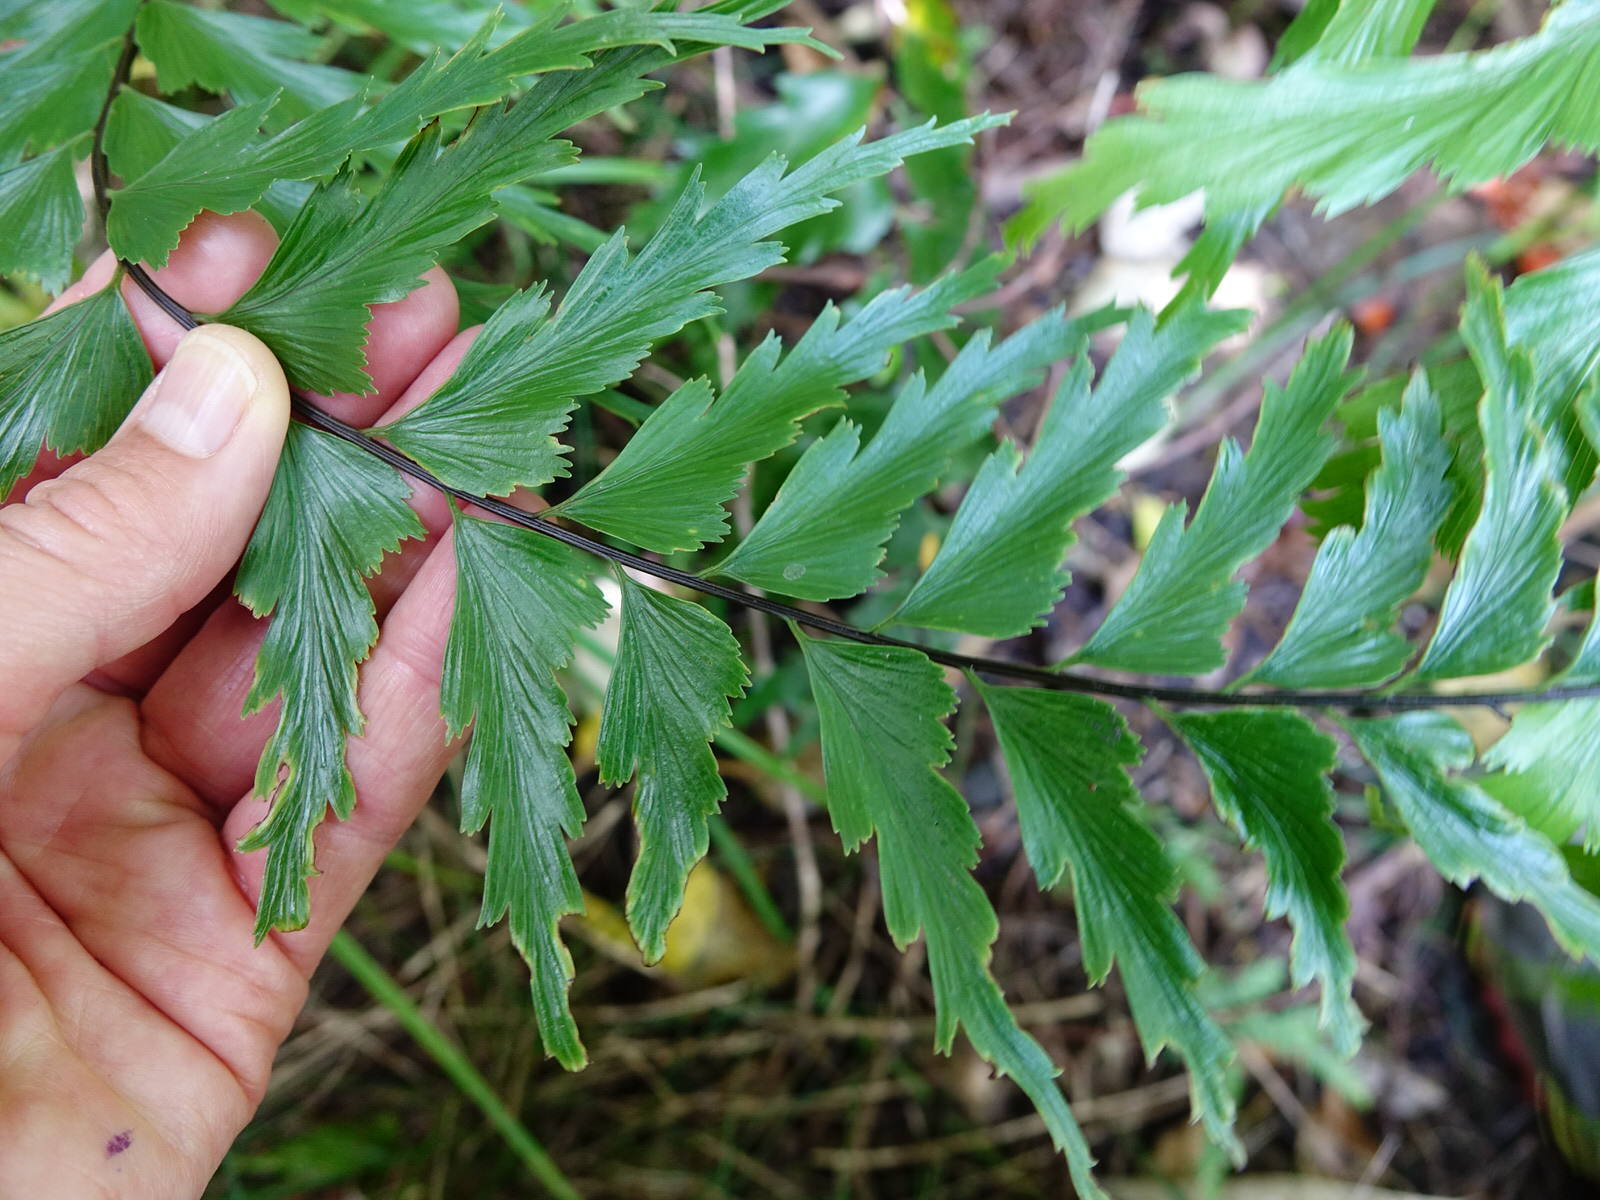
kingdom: Plantae
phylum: Tracheophyta
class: Polypodiopsida
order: Polypodiales
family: Aspleniaceae
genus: Asplenium
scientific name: Asplenium polyodon
